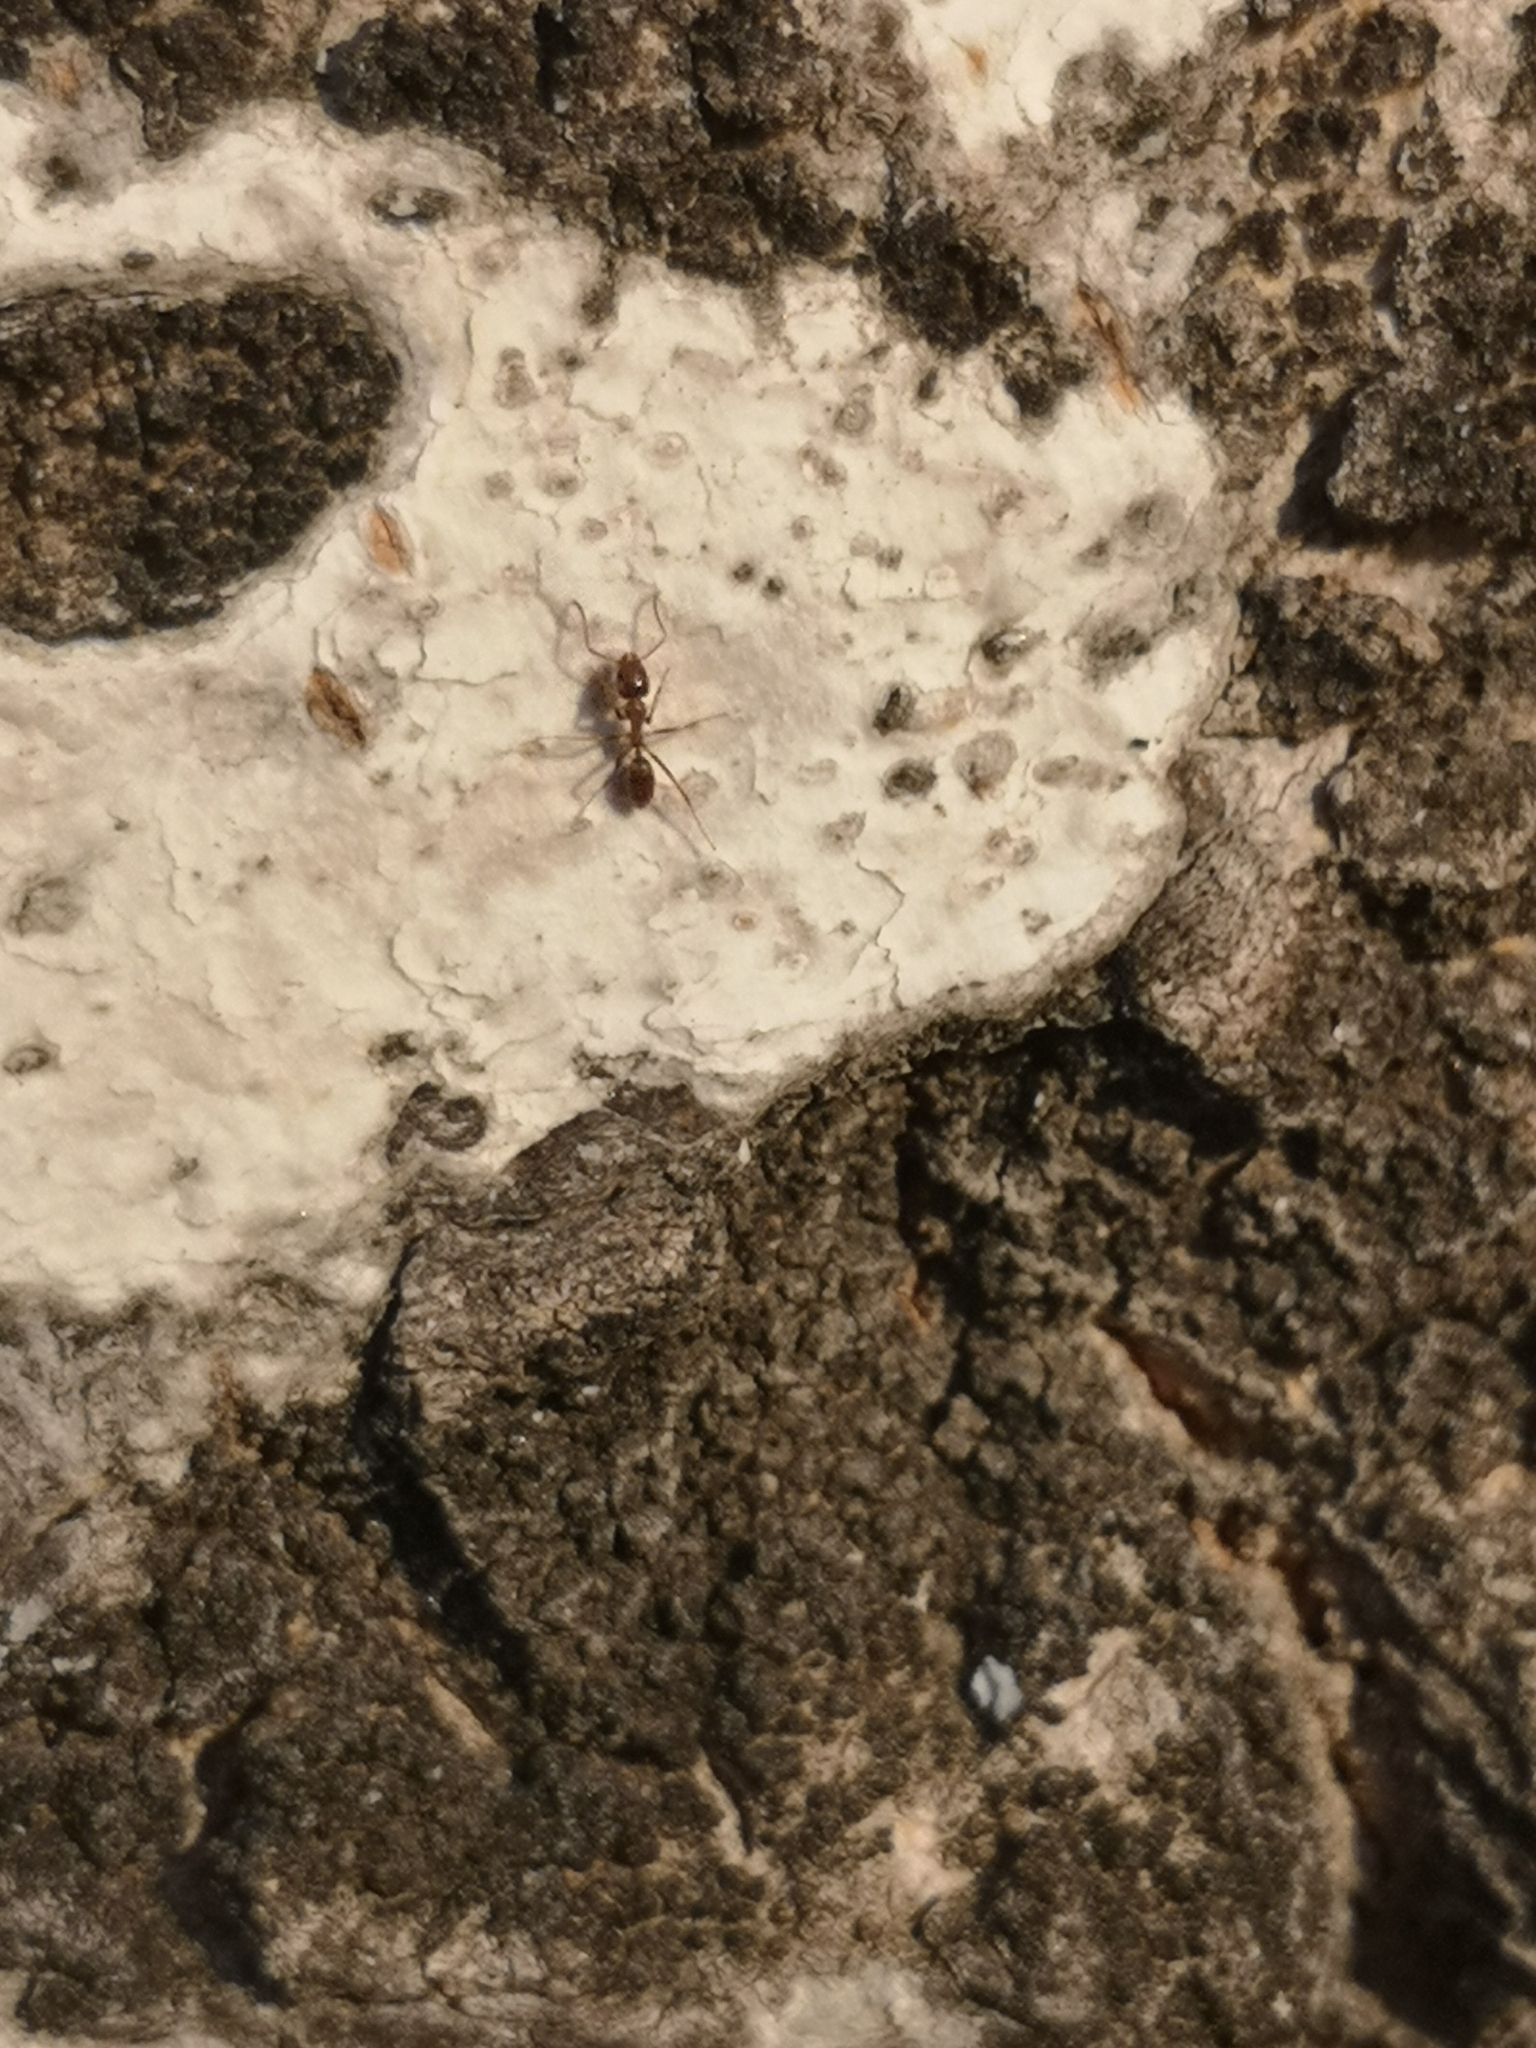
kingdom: Animalia
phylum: Arthropoda
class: Insecta
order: Hymenoptera
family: Formicidae
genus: Linepithema
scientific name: Linepithema humile
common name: Argentine ant
